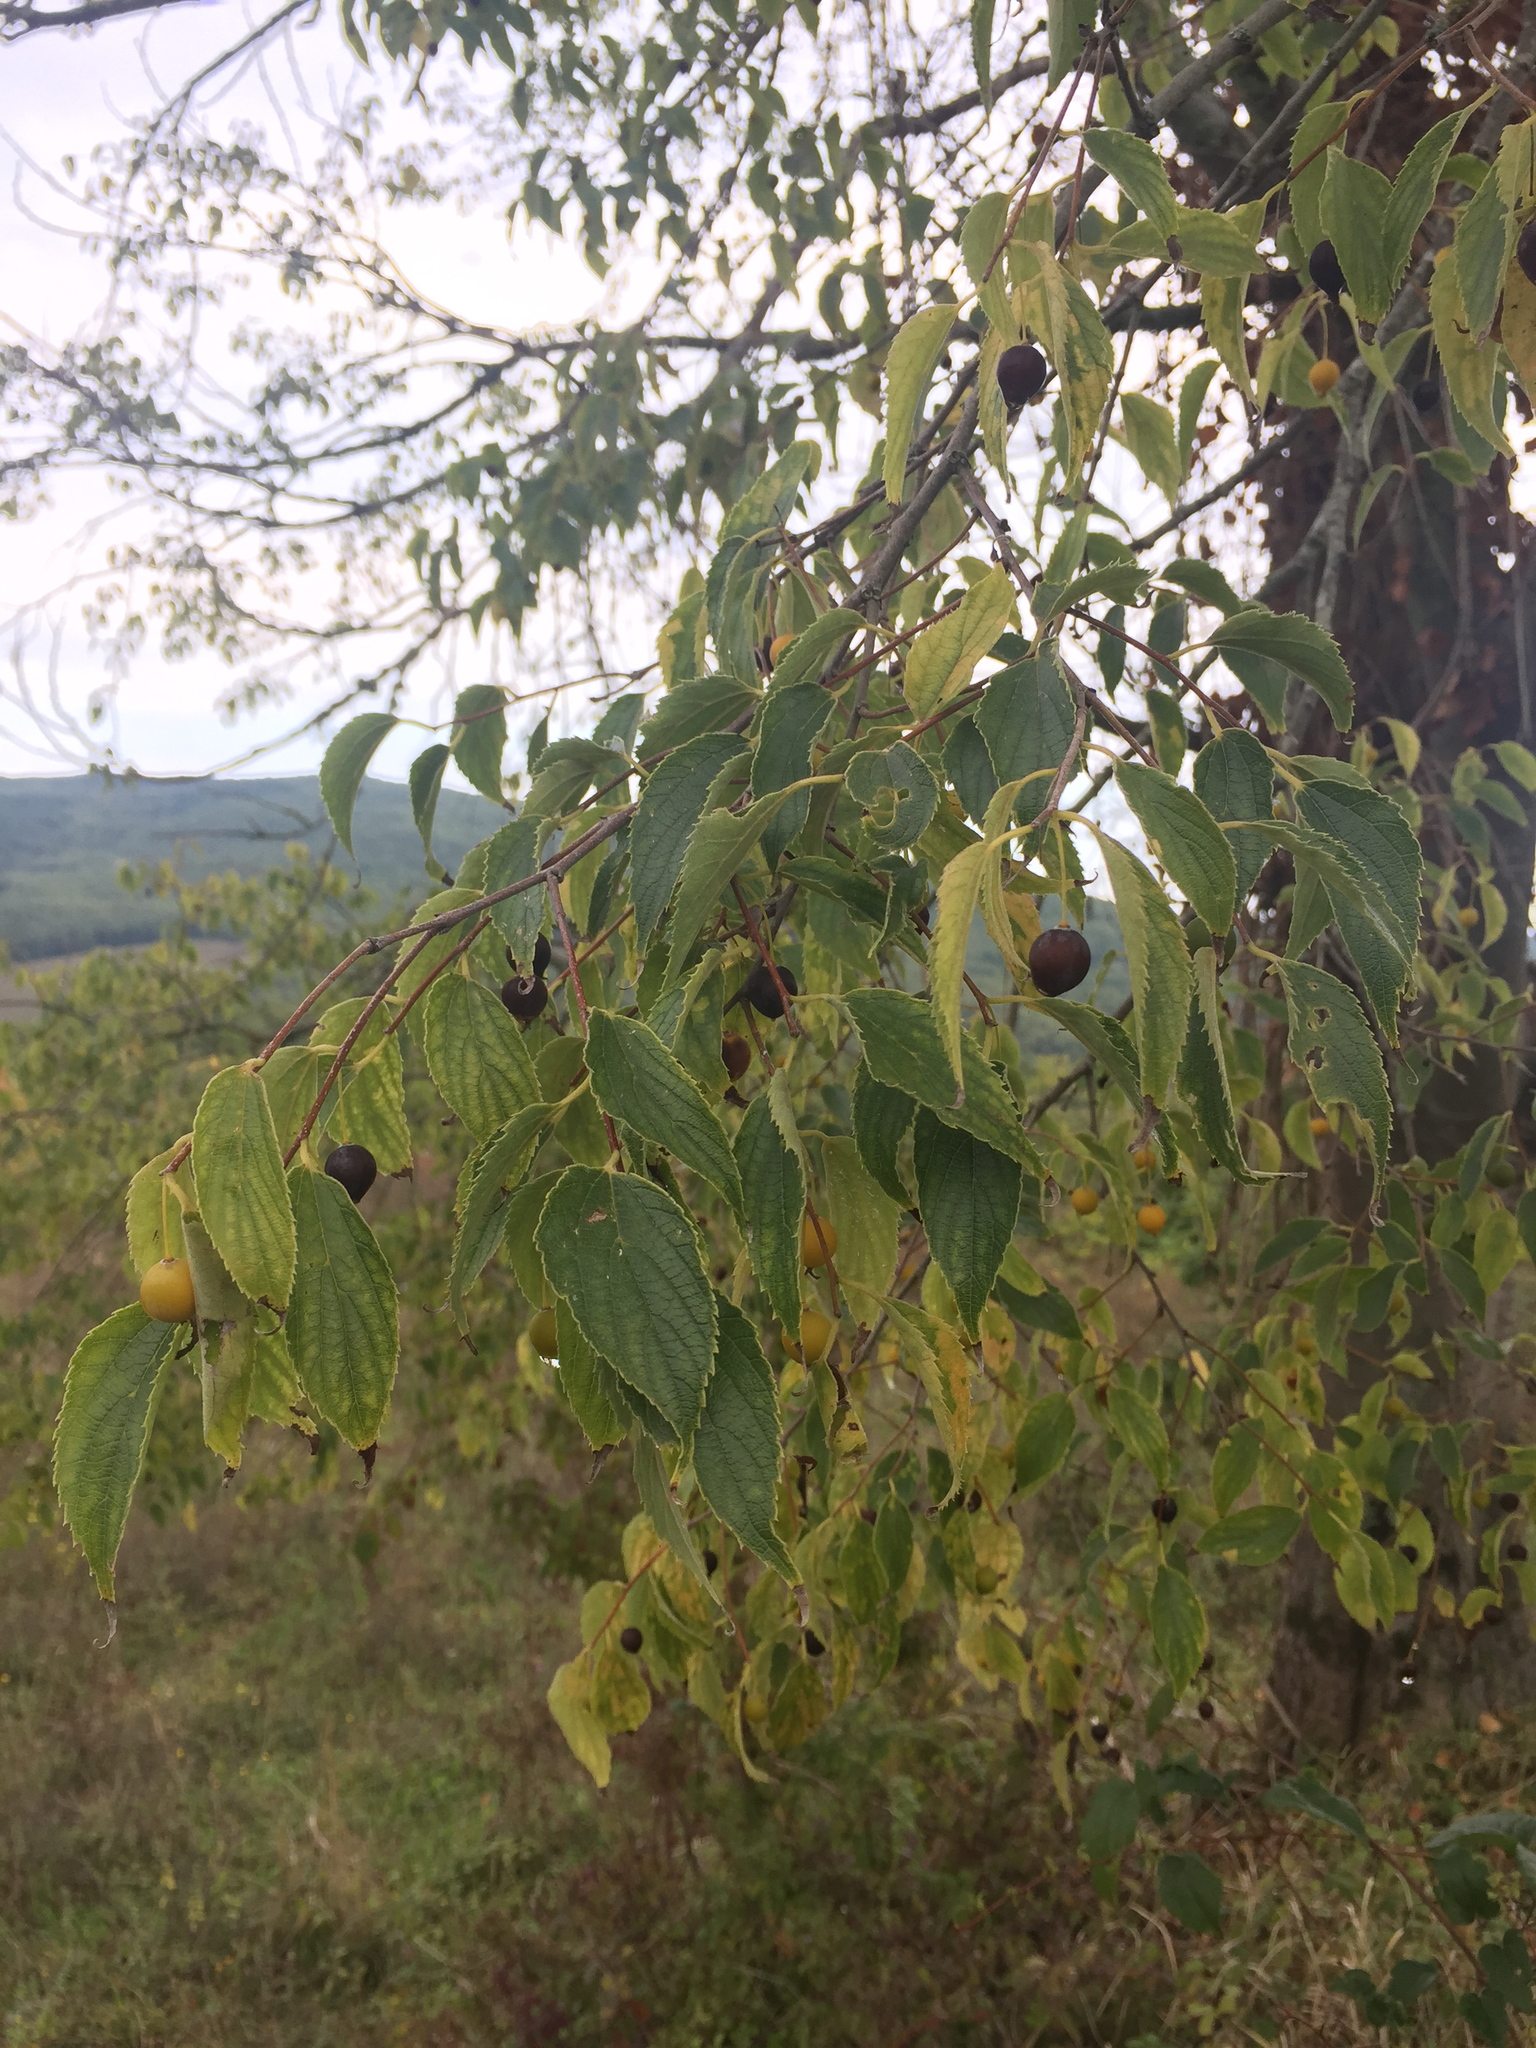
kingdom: Plantae
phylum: Tracheophyta
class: Magnoliopsida
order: Rosales
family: Cannabaceae
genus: Celtis
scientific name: Celtis australis
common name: European hackberry
